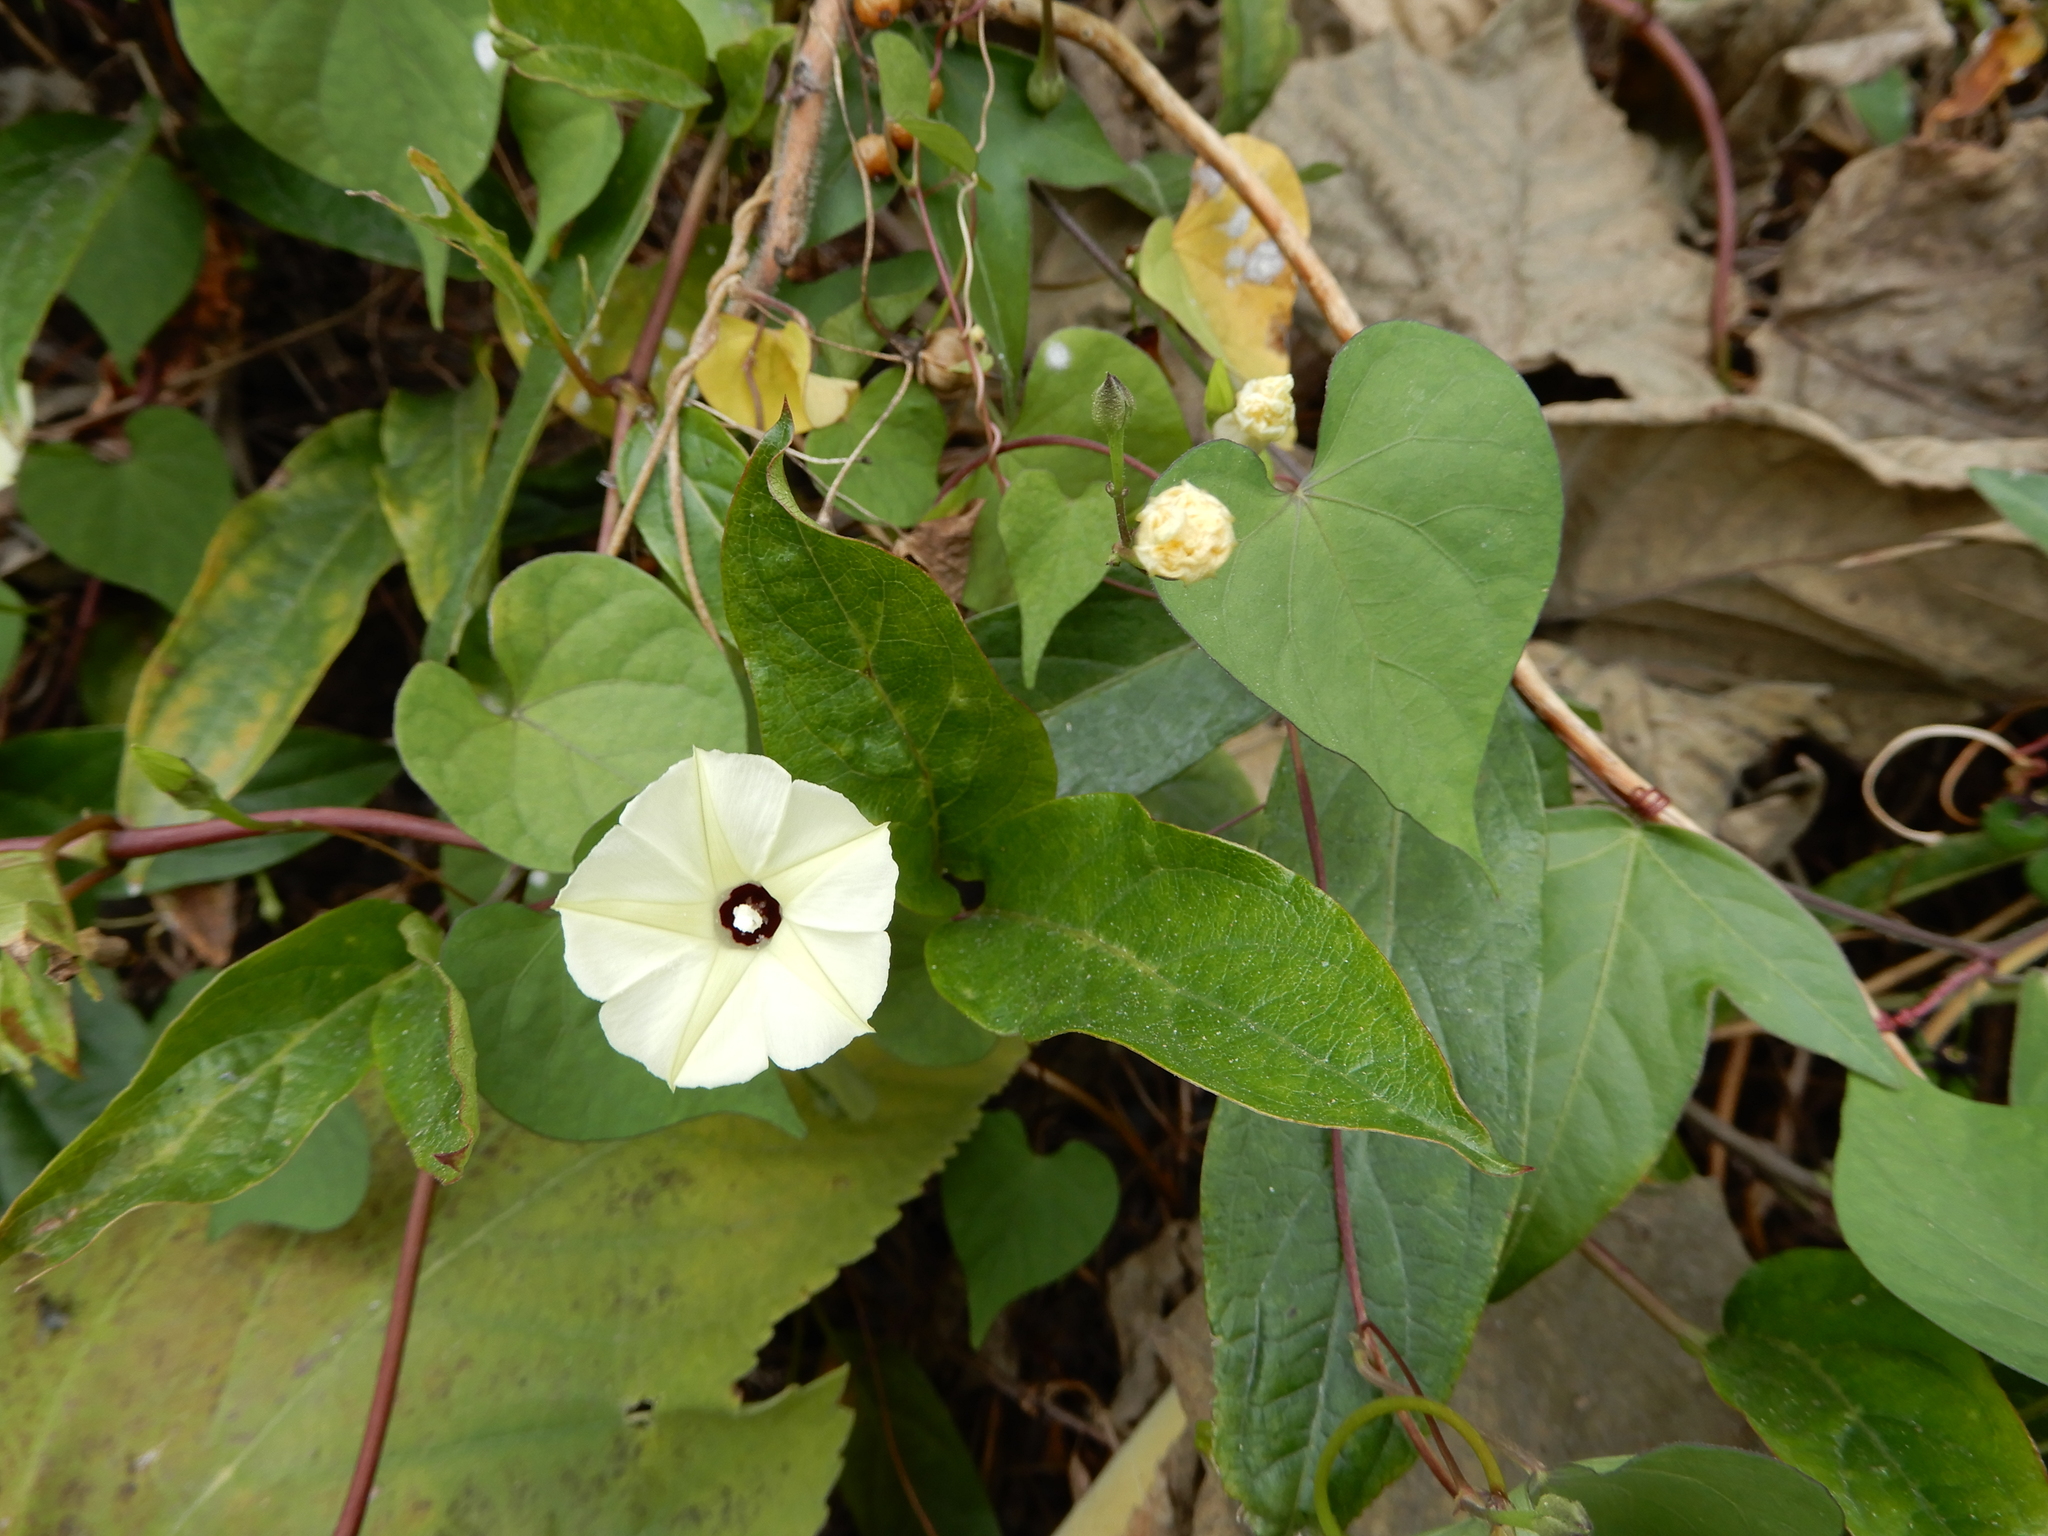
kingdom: Plantae
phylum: Tracheophyta
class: Magnoliopsida
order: Solanales
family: Convolvulaceae
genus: Ipomoea
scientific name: Ipomoea obscura
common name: Obscure morning-glory
